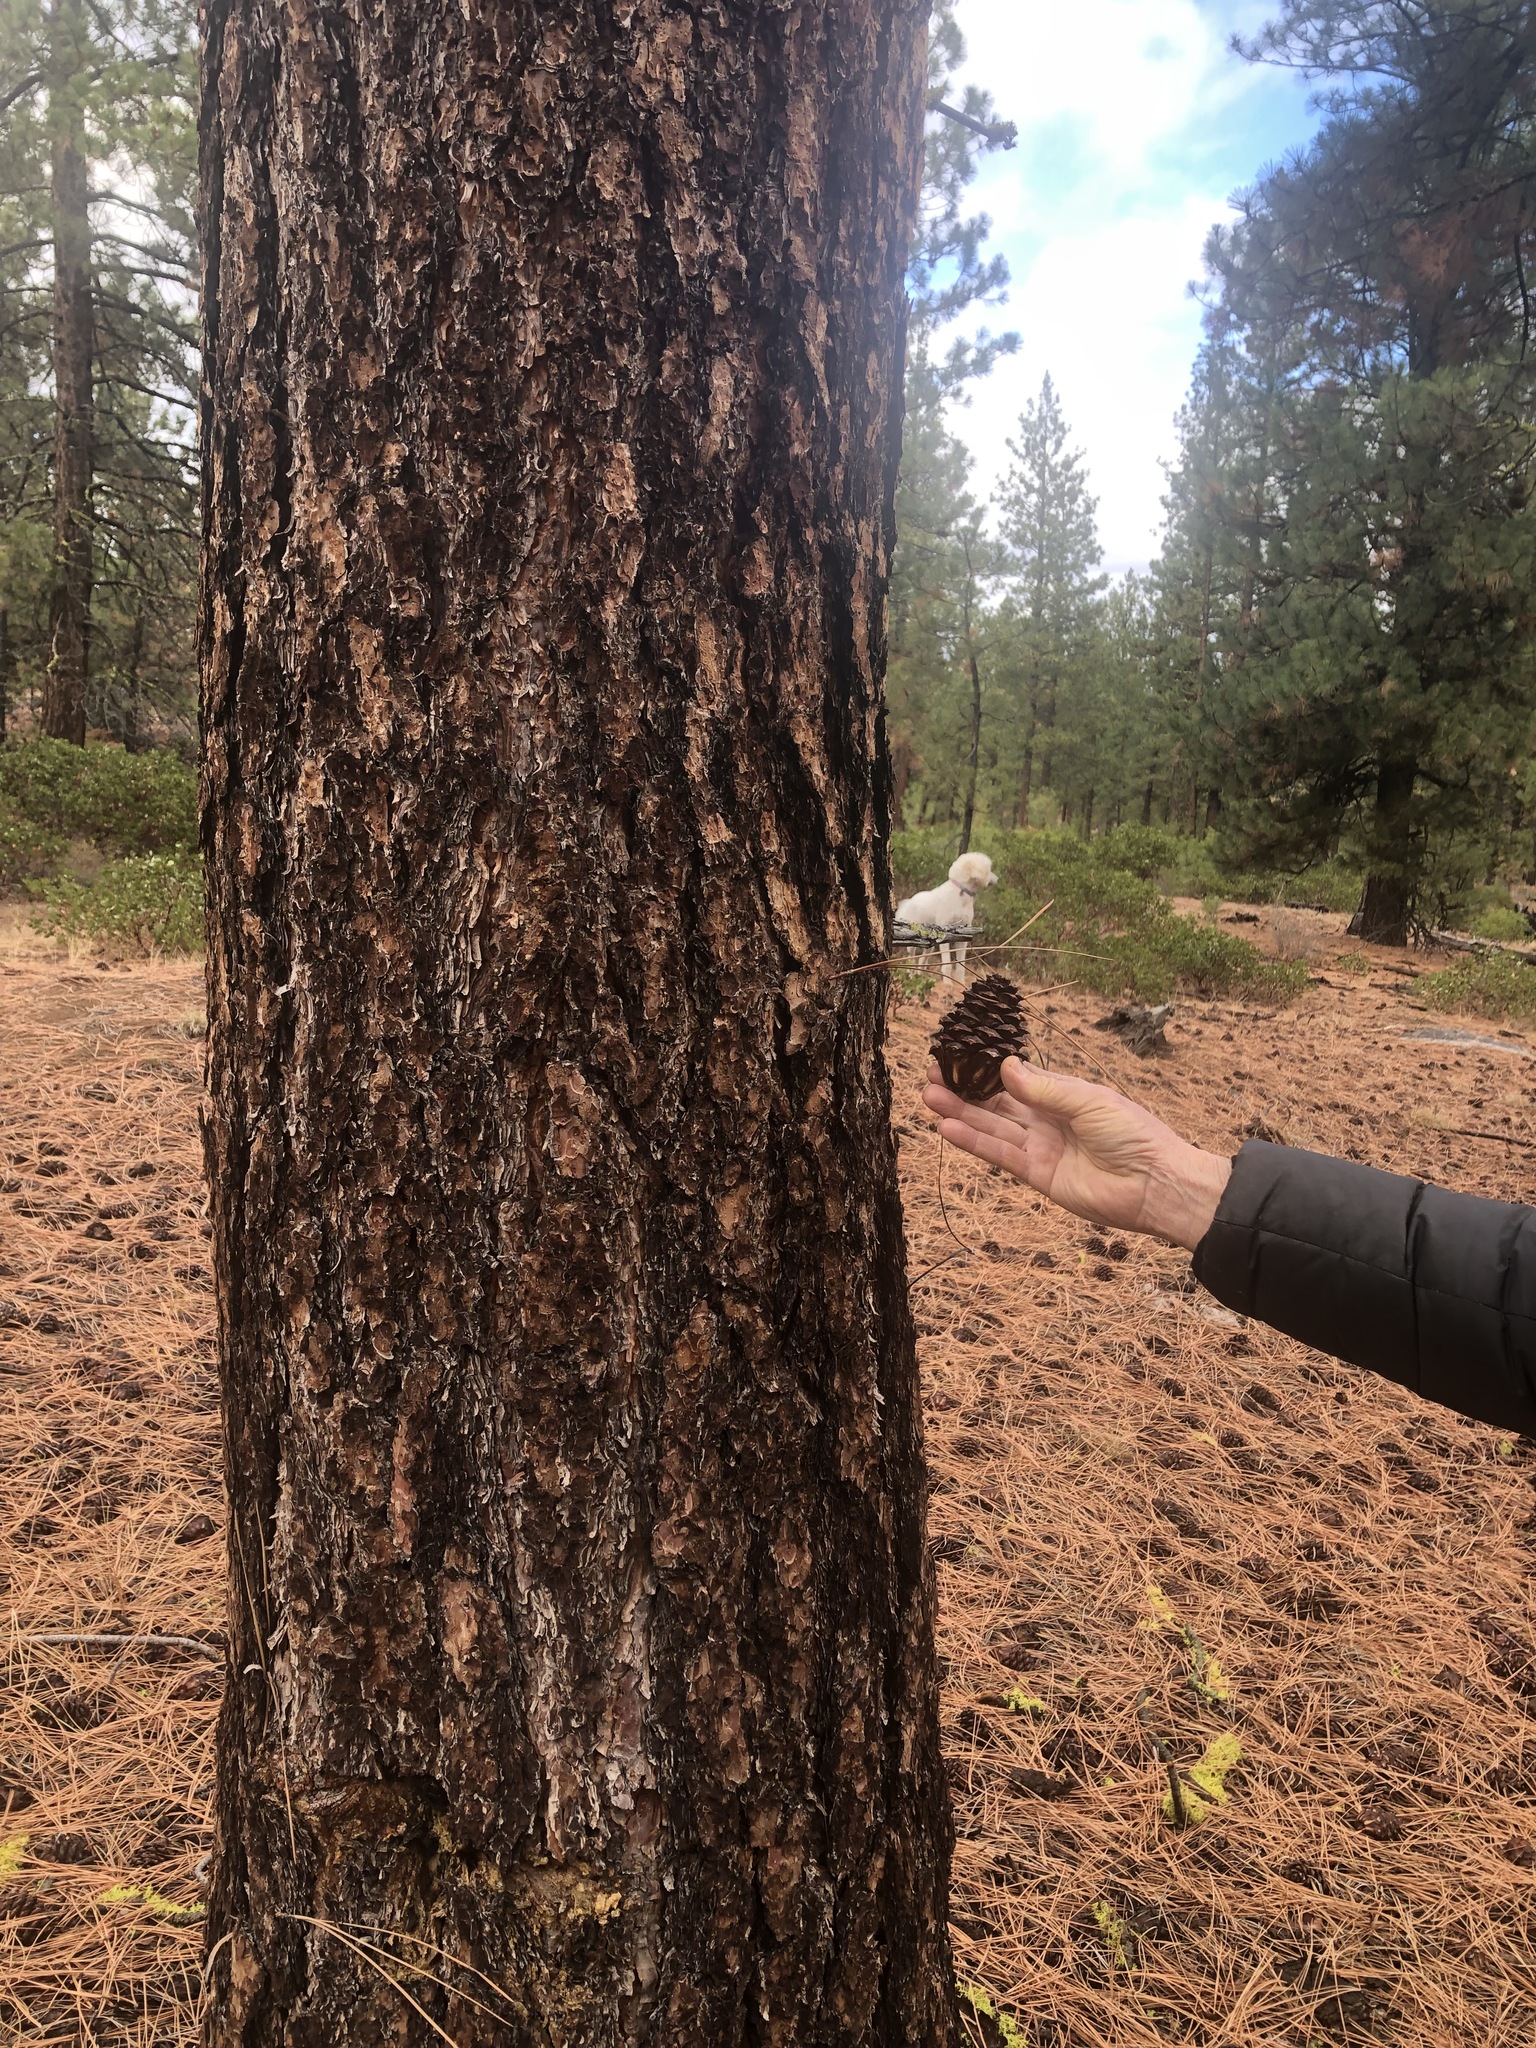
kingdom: Plantae
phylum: Tracheophyta
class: Pinopsida
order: Pinales
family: Pinaceae
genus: Pinus
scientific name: Pinus ponderosa
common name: Western yellow-pine
